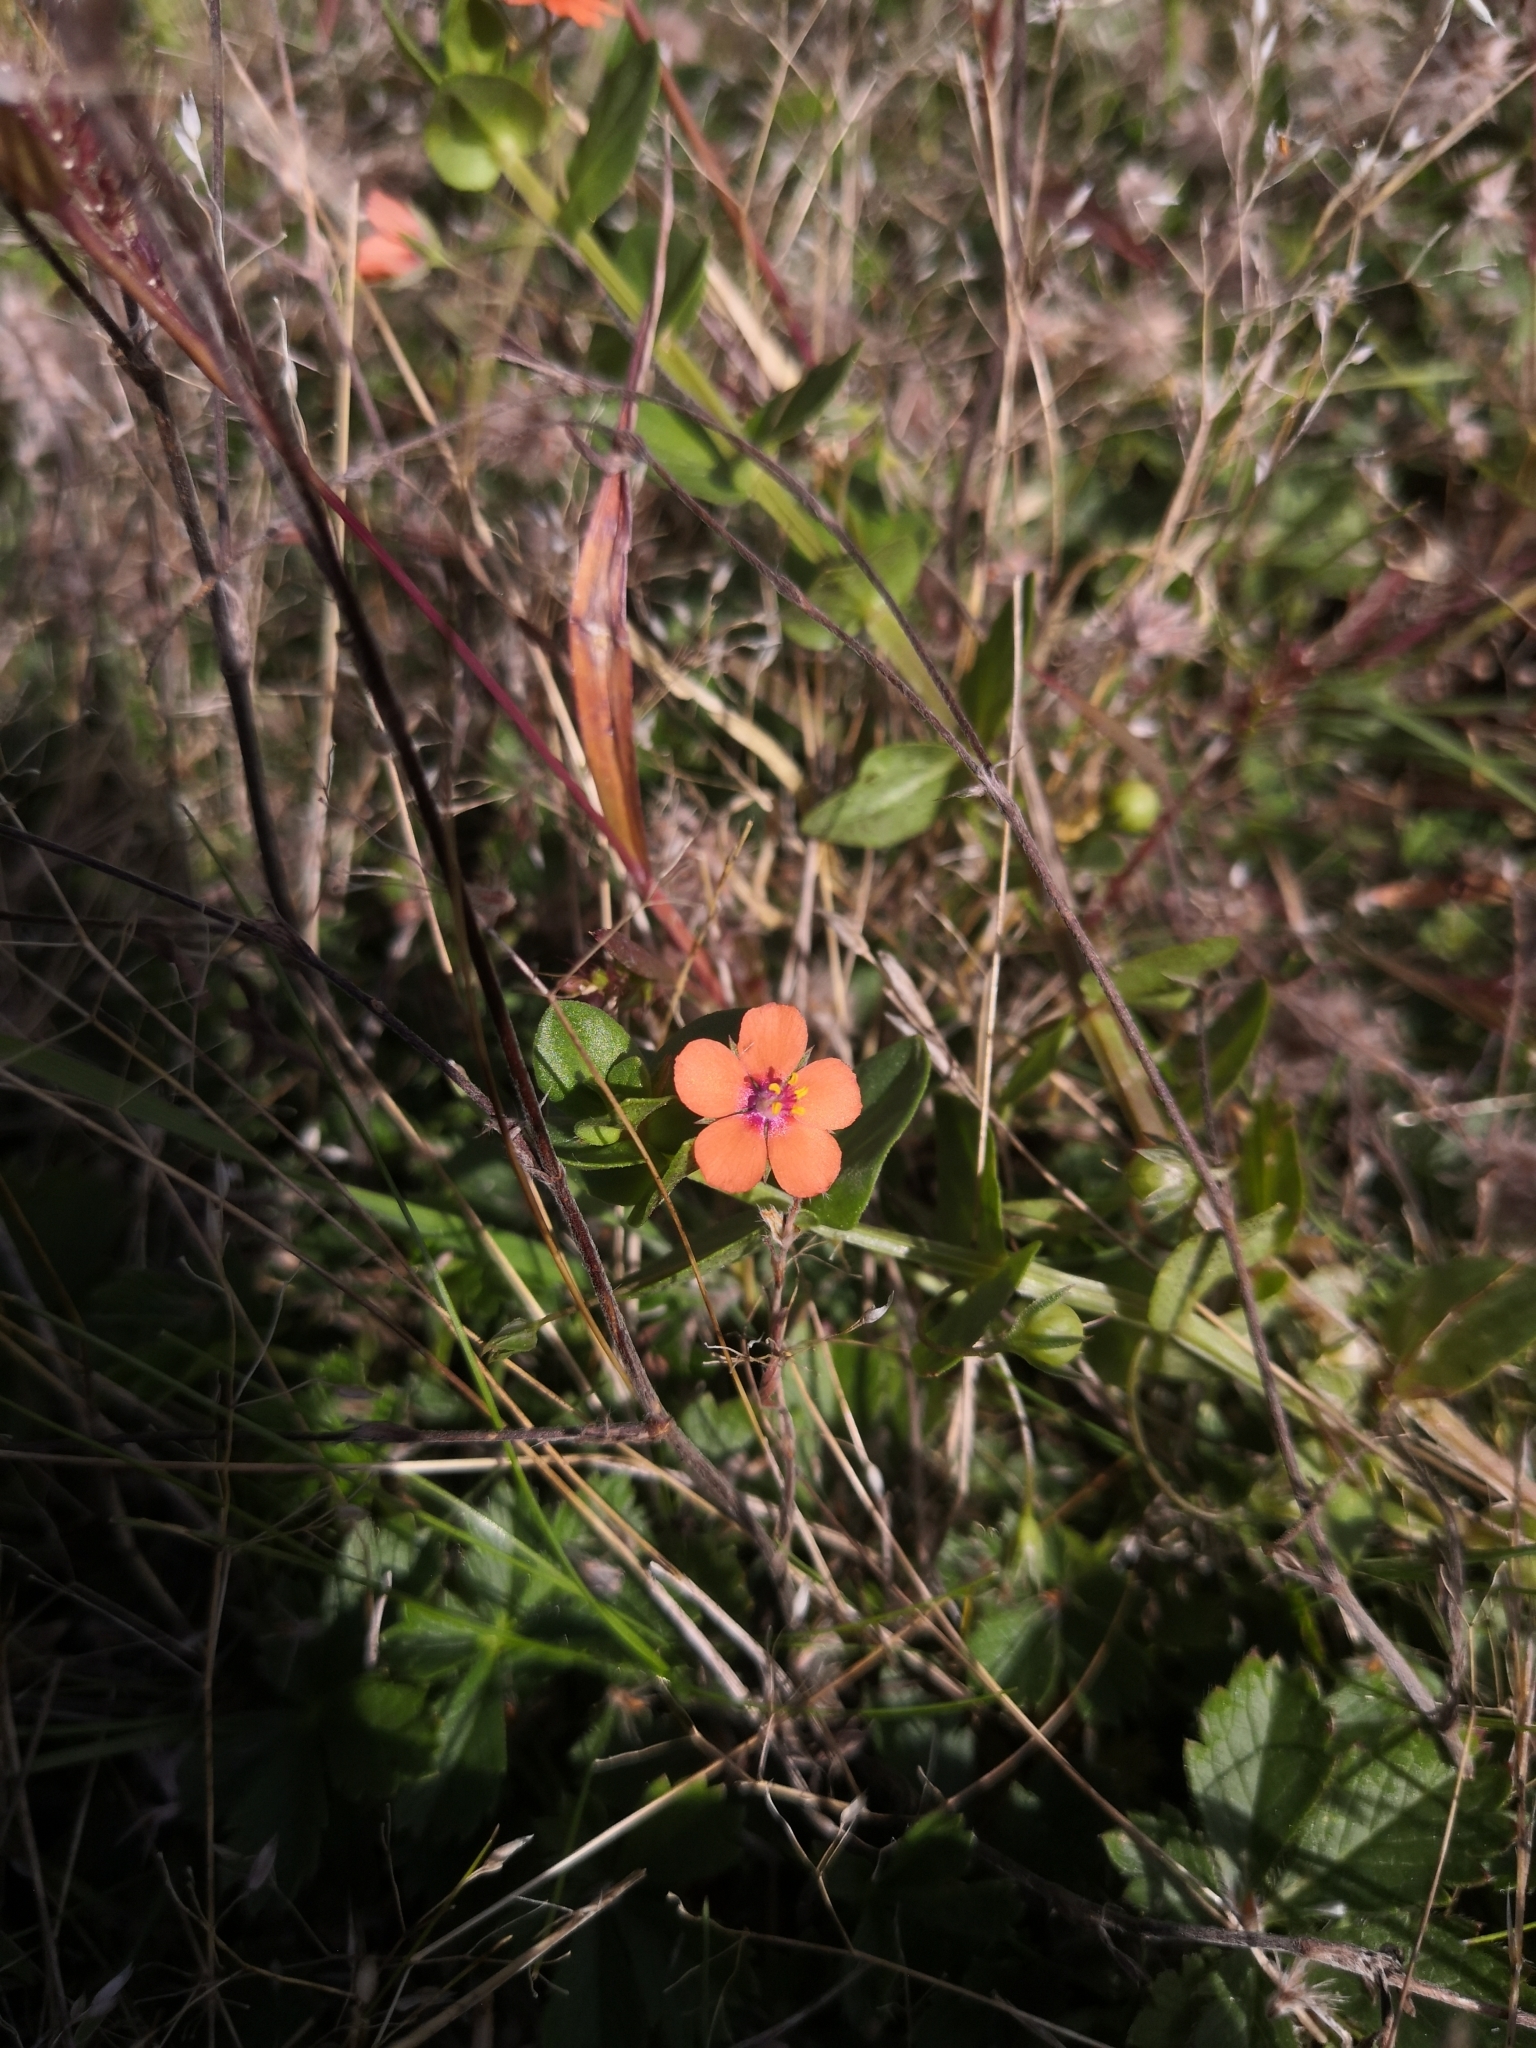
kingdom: Plantae
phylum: Tracheophyta
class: Magnoliopsida
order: Ericales
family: Primulaceae
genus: Lysimachia
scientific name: Lysimachia arvensis
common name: Scarlet pimpernel
